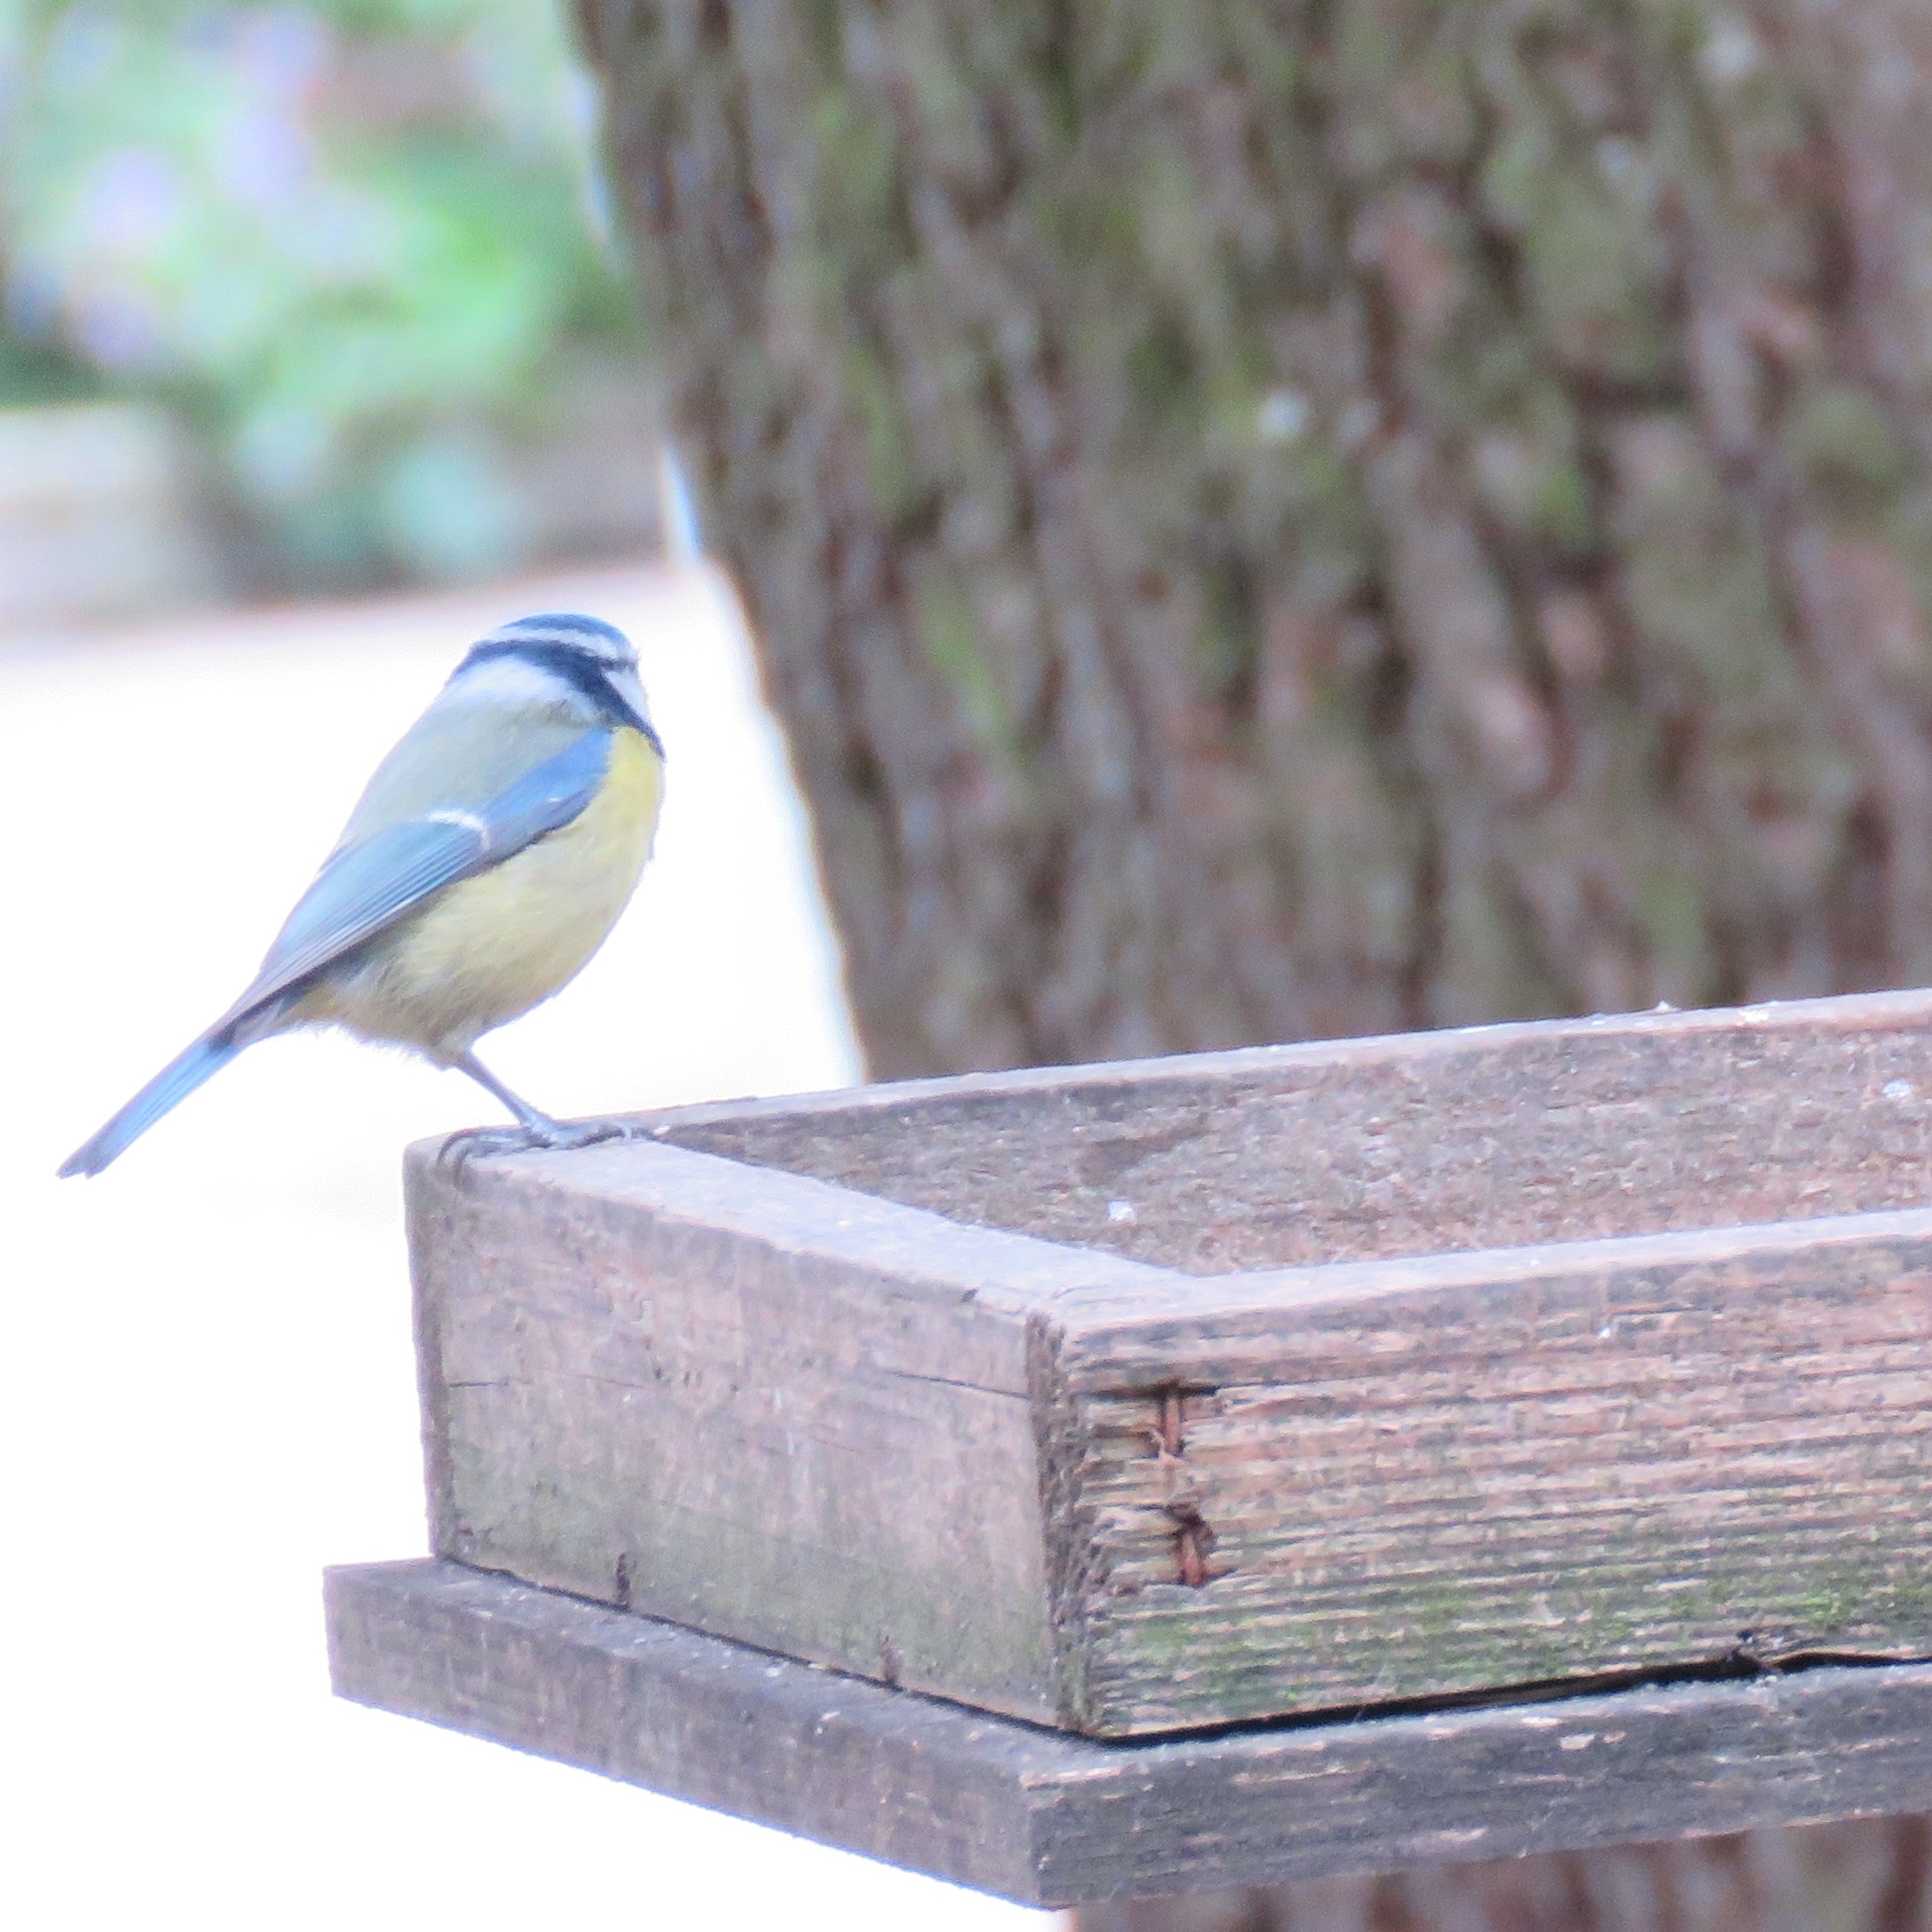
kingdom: Animalia
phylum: Chordata
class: Aves
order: Passeriformes
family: Paridae
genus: Cyanistes
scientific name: Cyanistes caeruleus
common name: Eurasian blue tit
